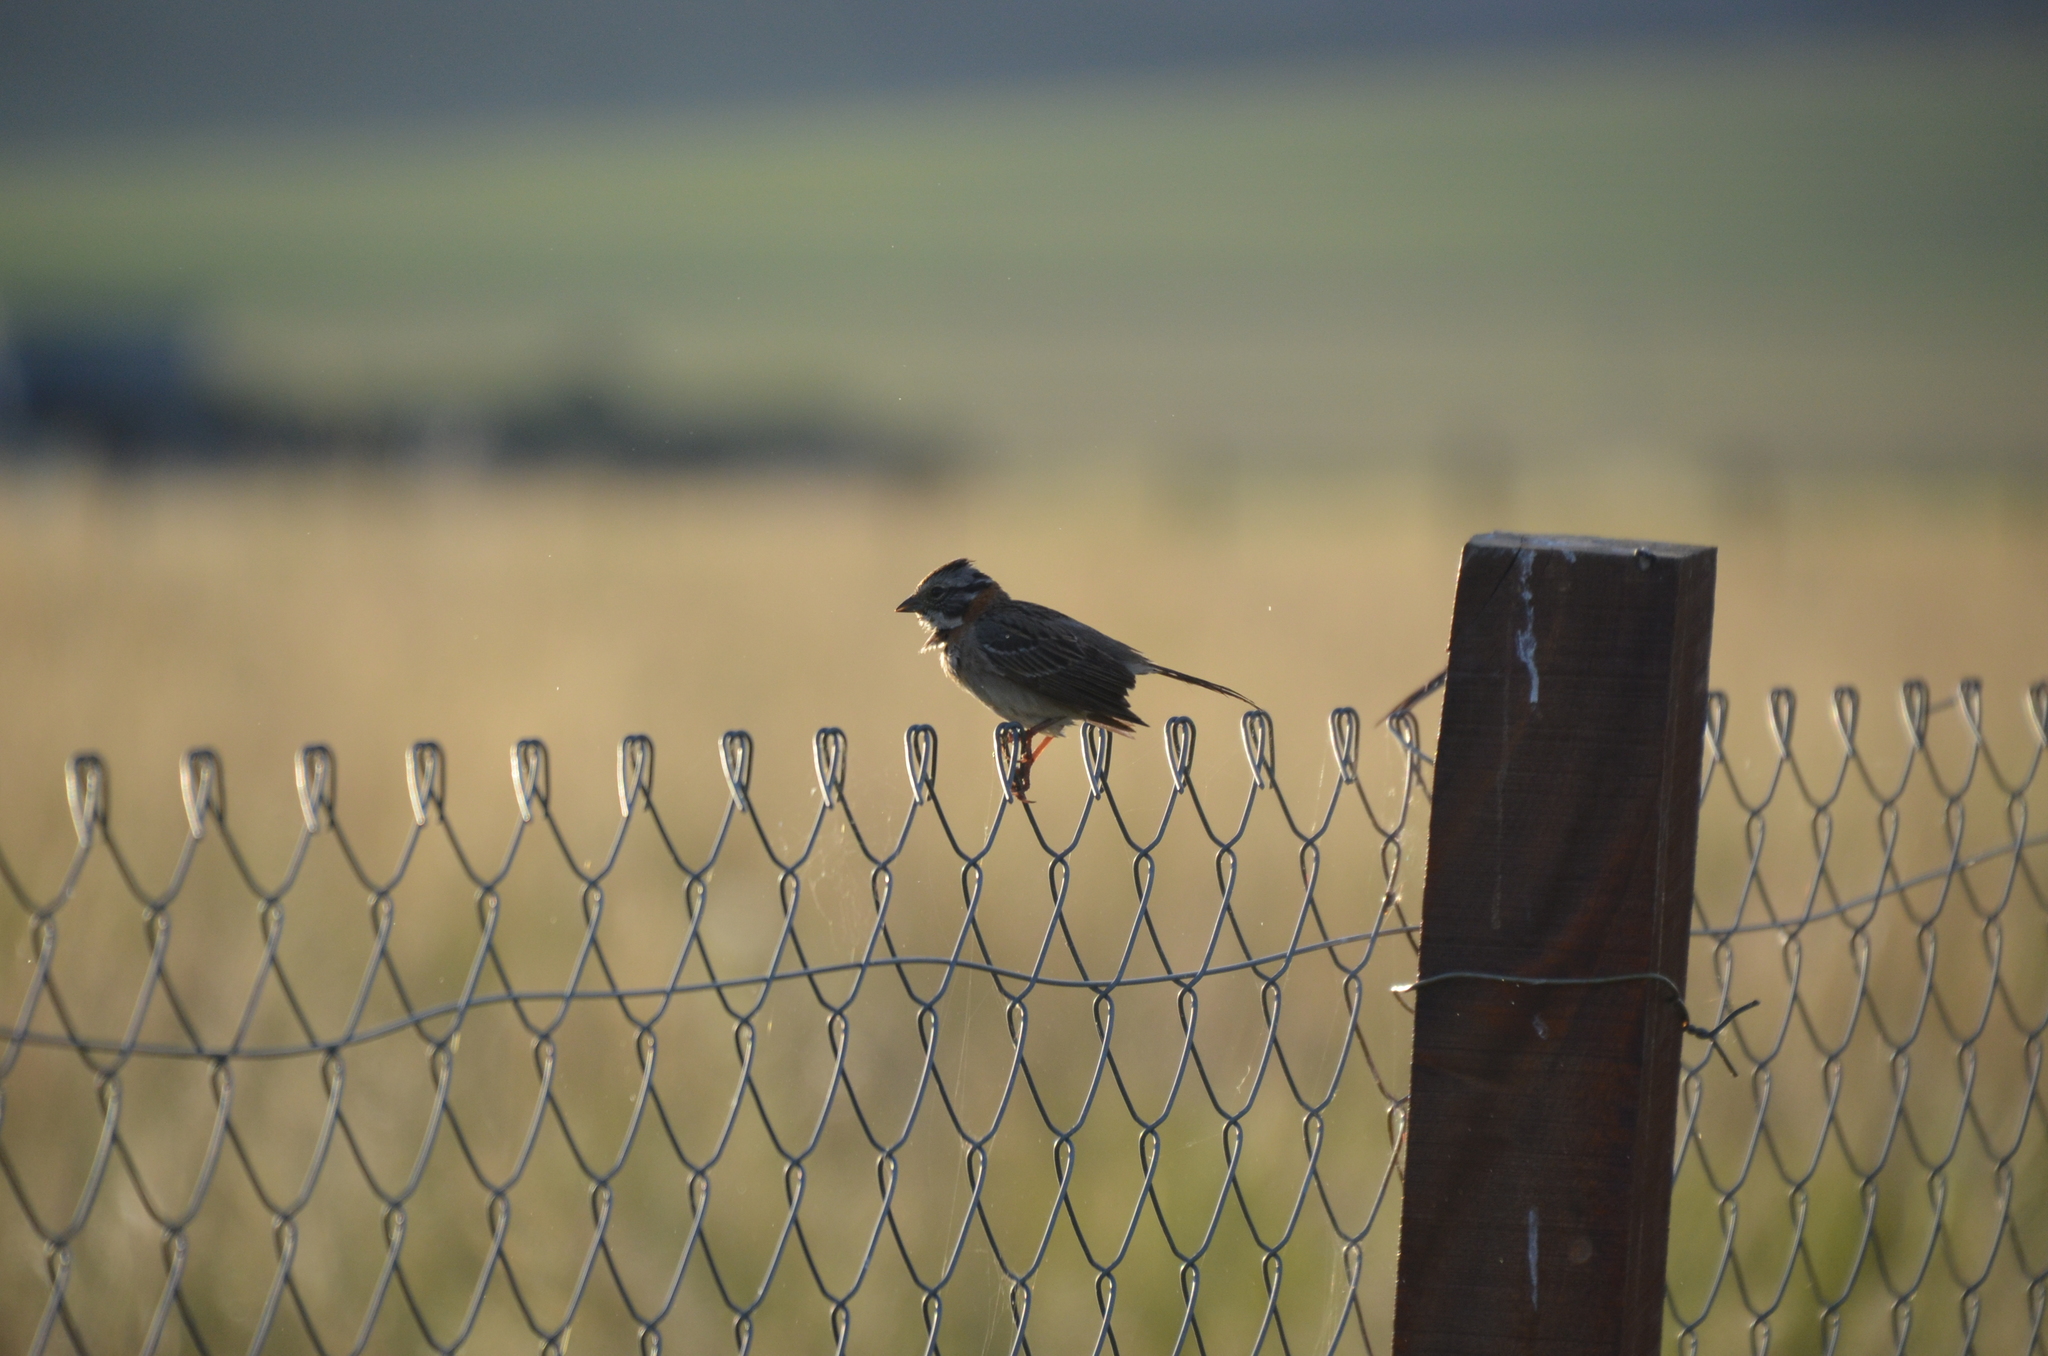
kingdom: Animalia
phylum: Chordata
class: Aves
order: Passeriformes
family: Passerellidae
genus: Zonotrichia
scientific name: Zonotrichia capensis
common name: Rufous-collared sparrow
